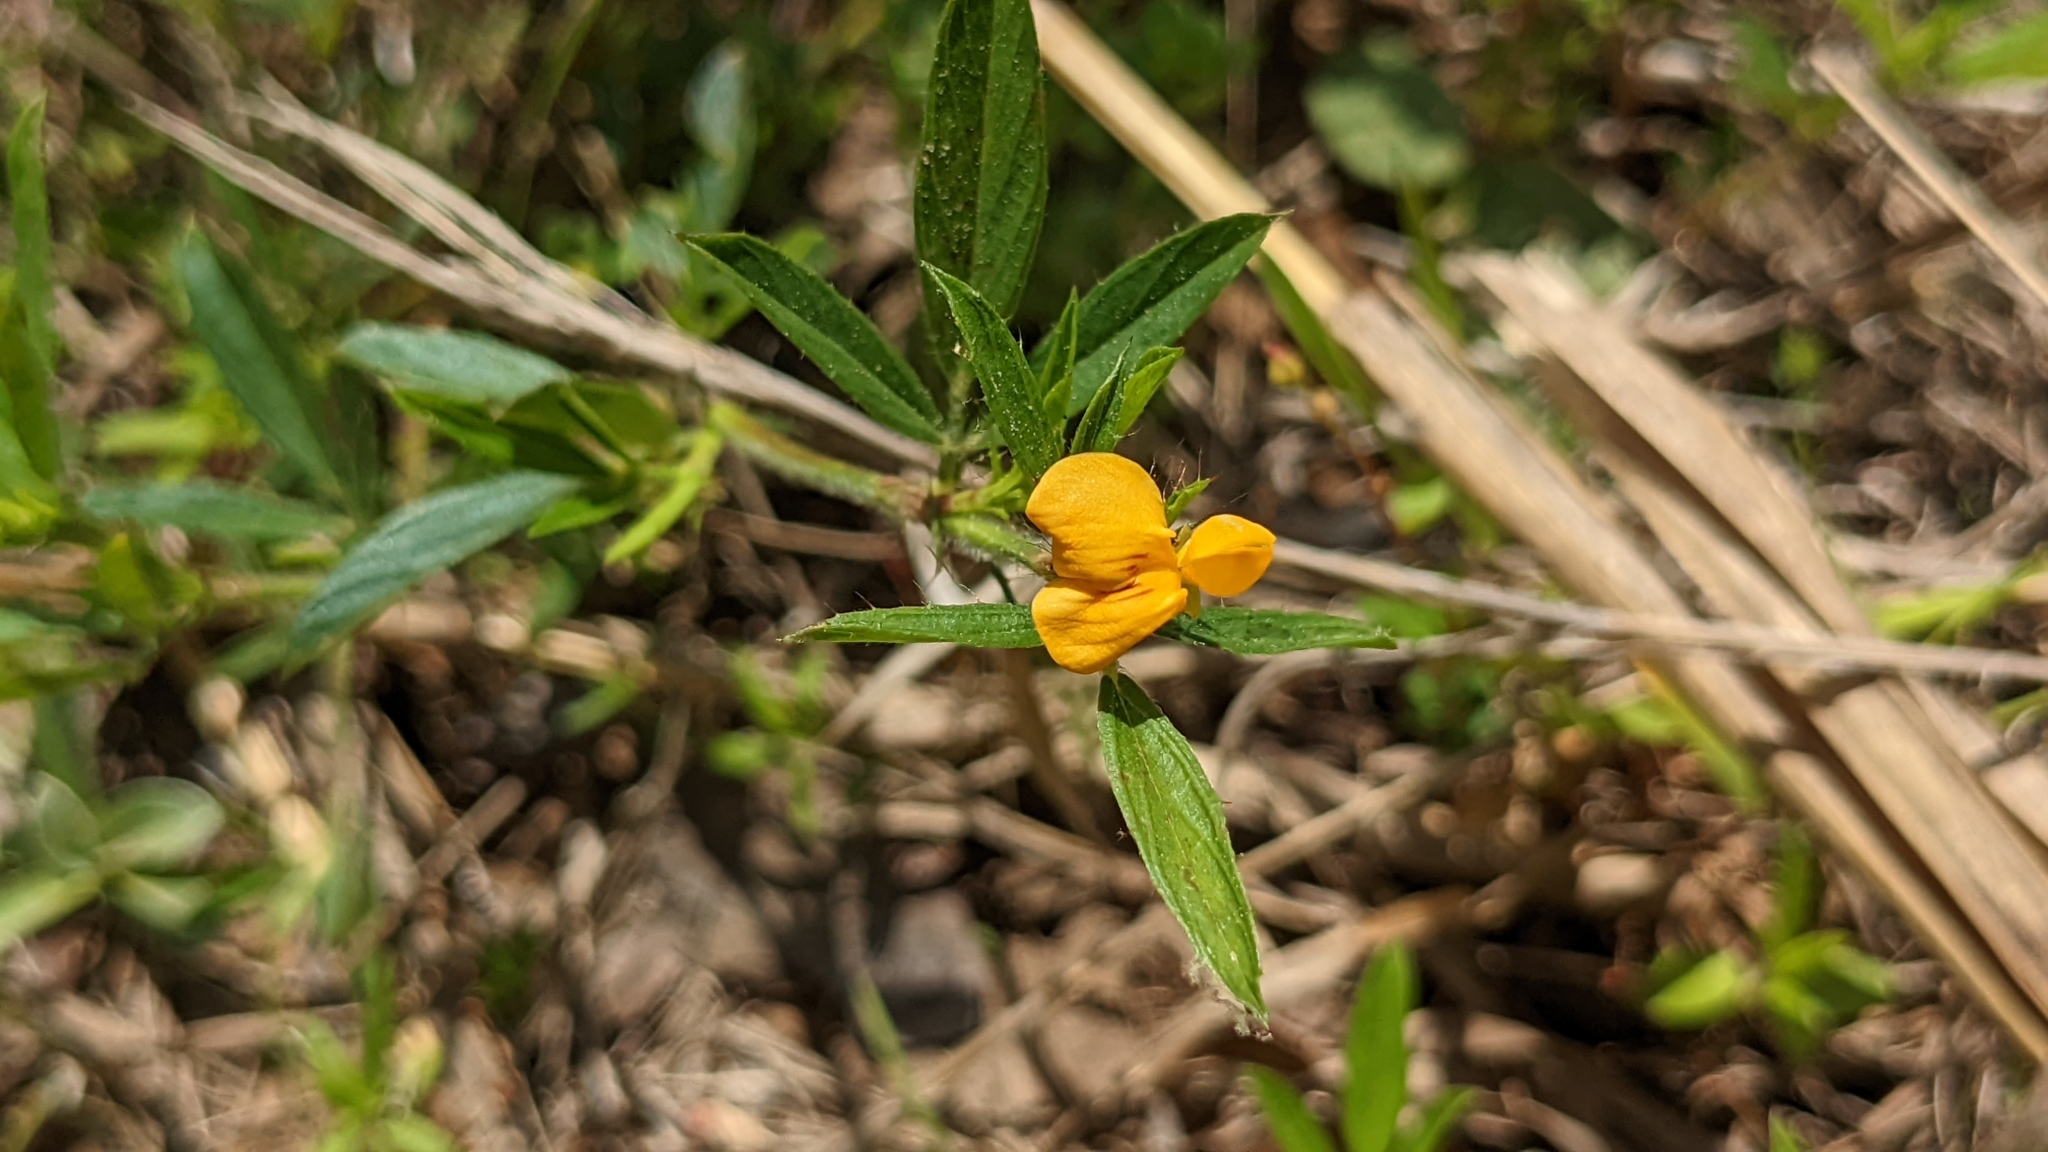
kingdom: Plantae
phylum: Tracheophyta
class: Magnoliopsida
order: Fabales
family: Fabaceae
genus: Stylosanthes
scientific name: Stylosanthes biflora
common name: Two-flower pencil-flower
